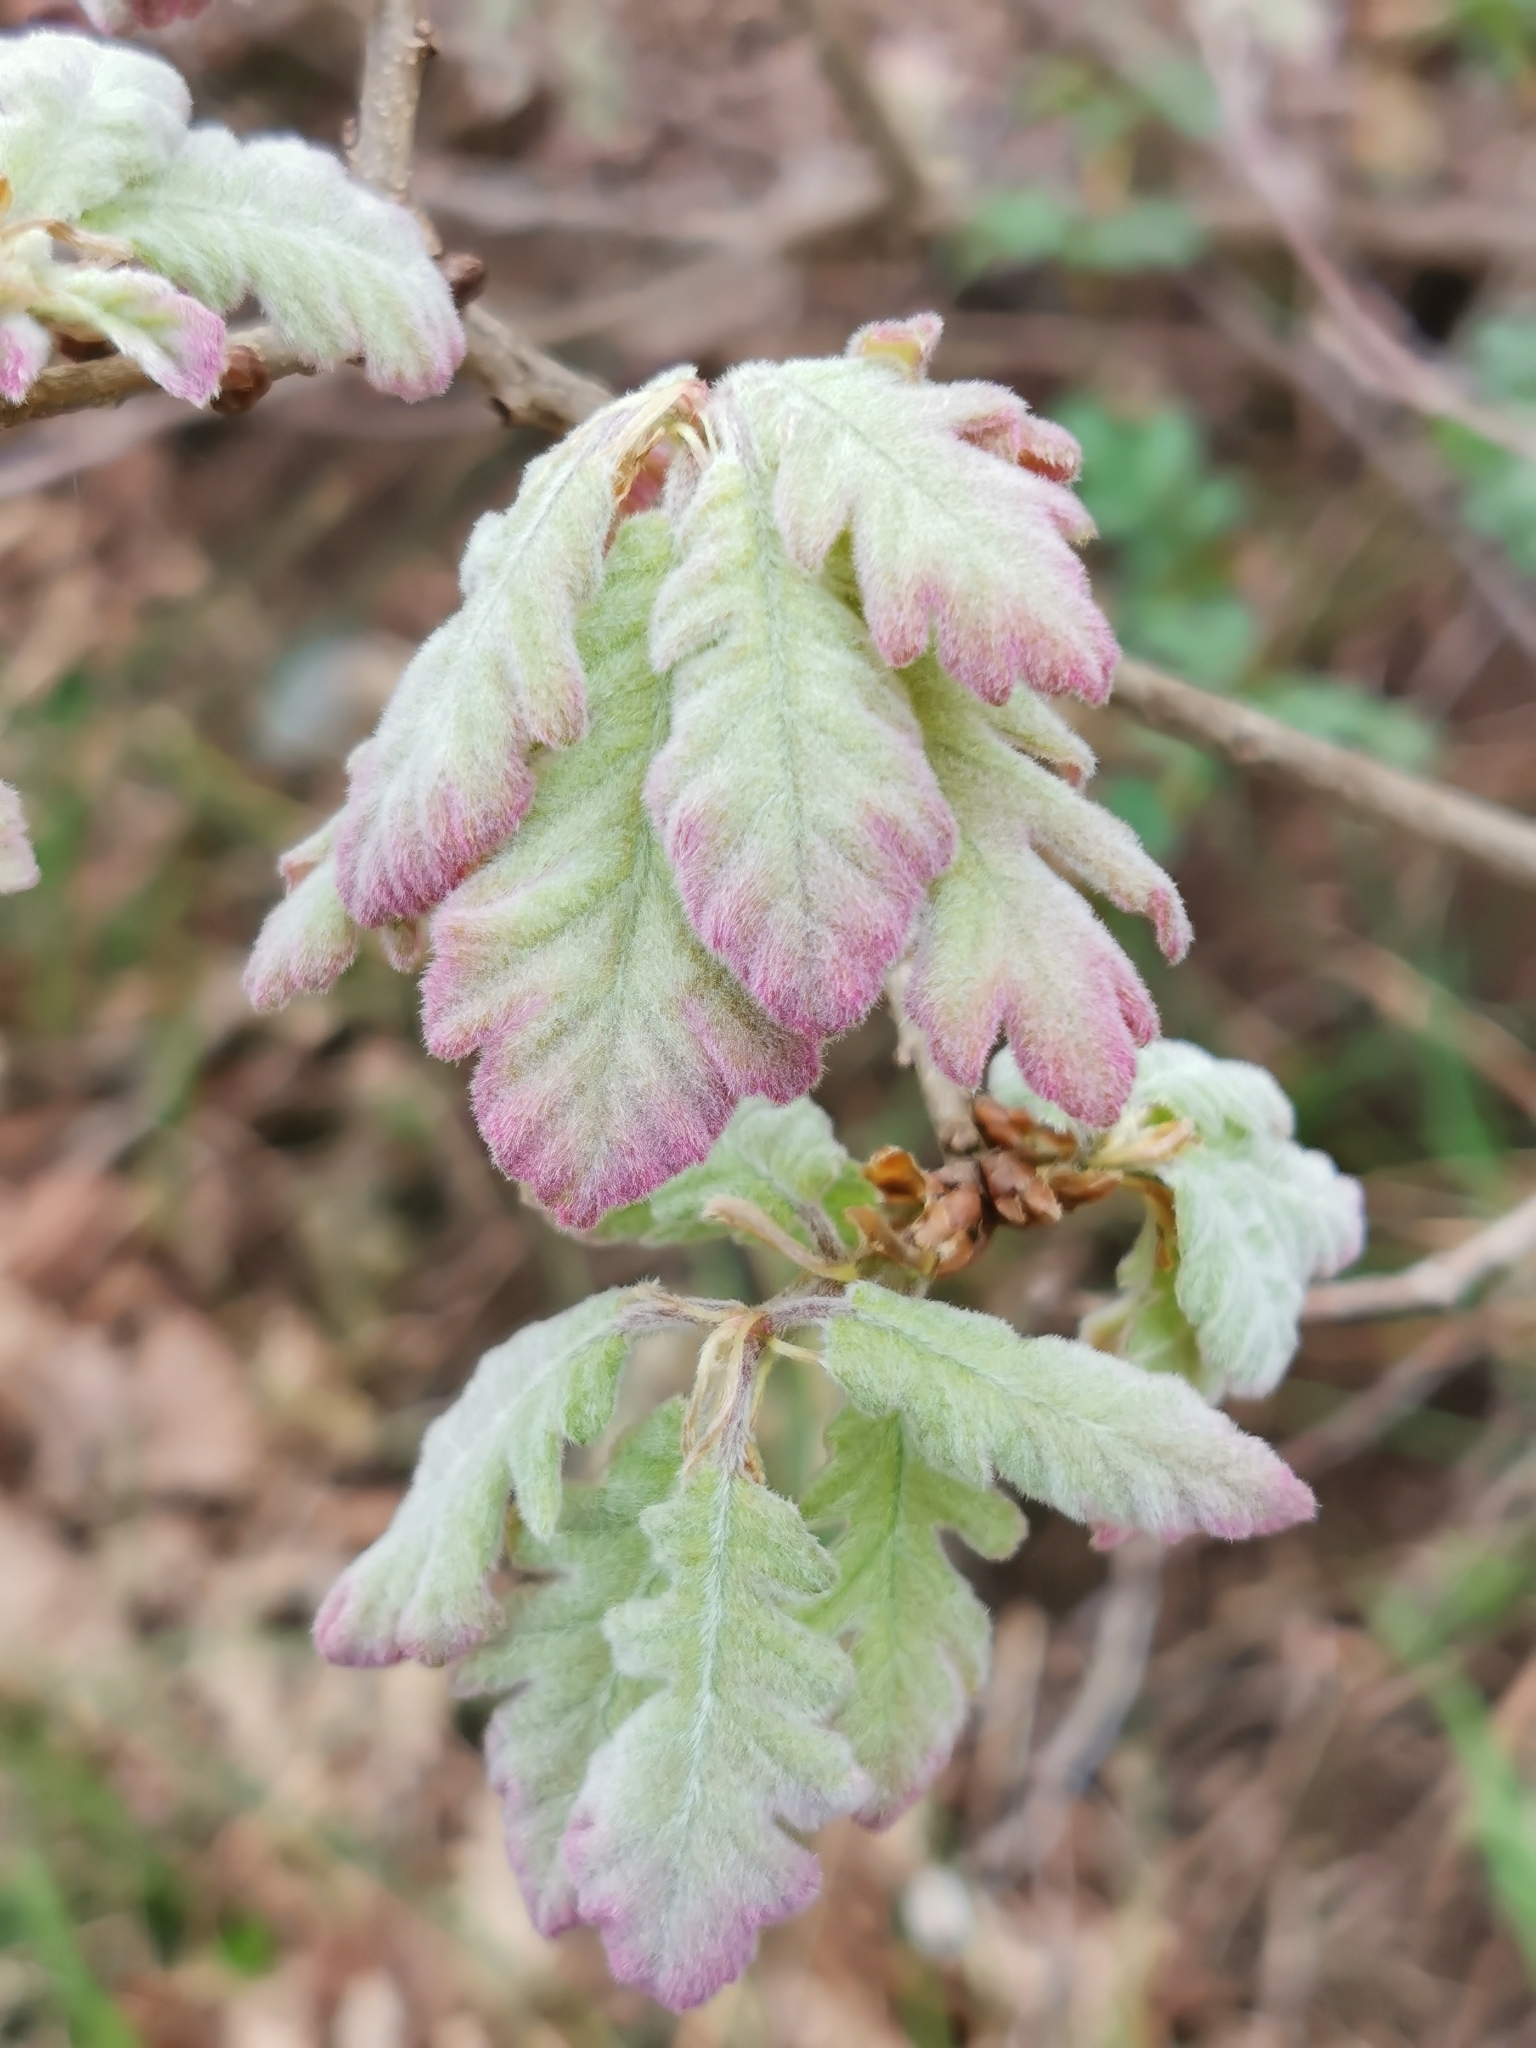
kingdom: Plantae
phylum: Tracheophyta
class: Magnoliopsida
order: Fagales
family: Fagaceae
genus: Quercus
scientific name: Quercus pubescens
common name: Downy oak
